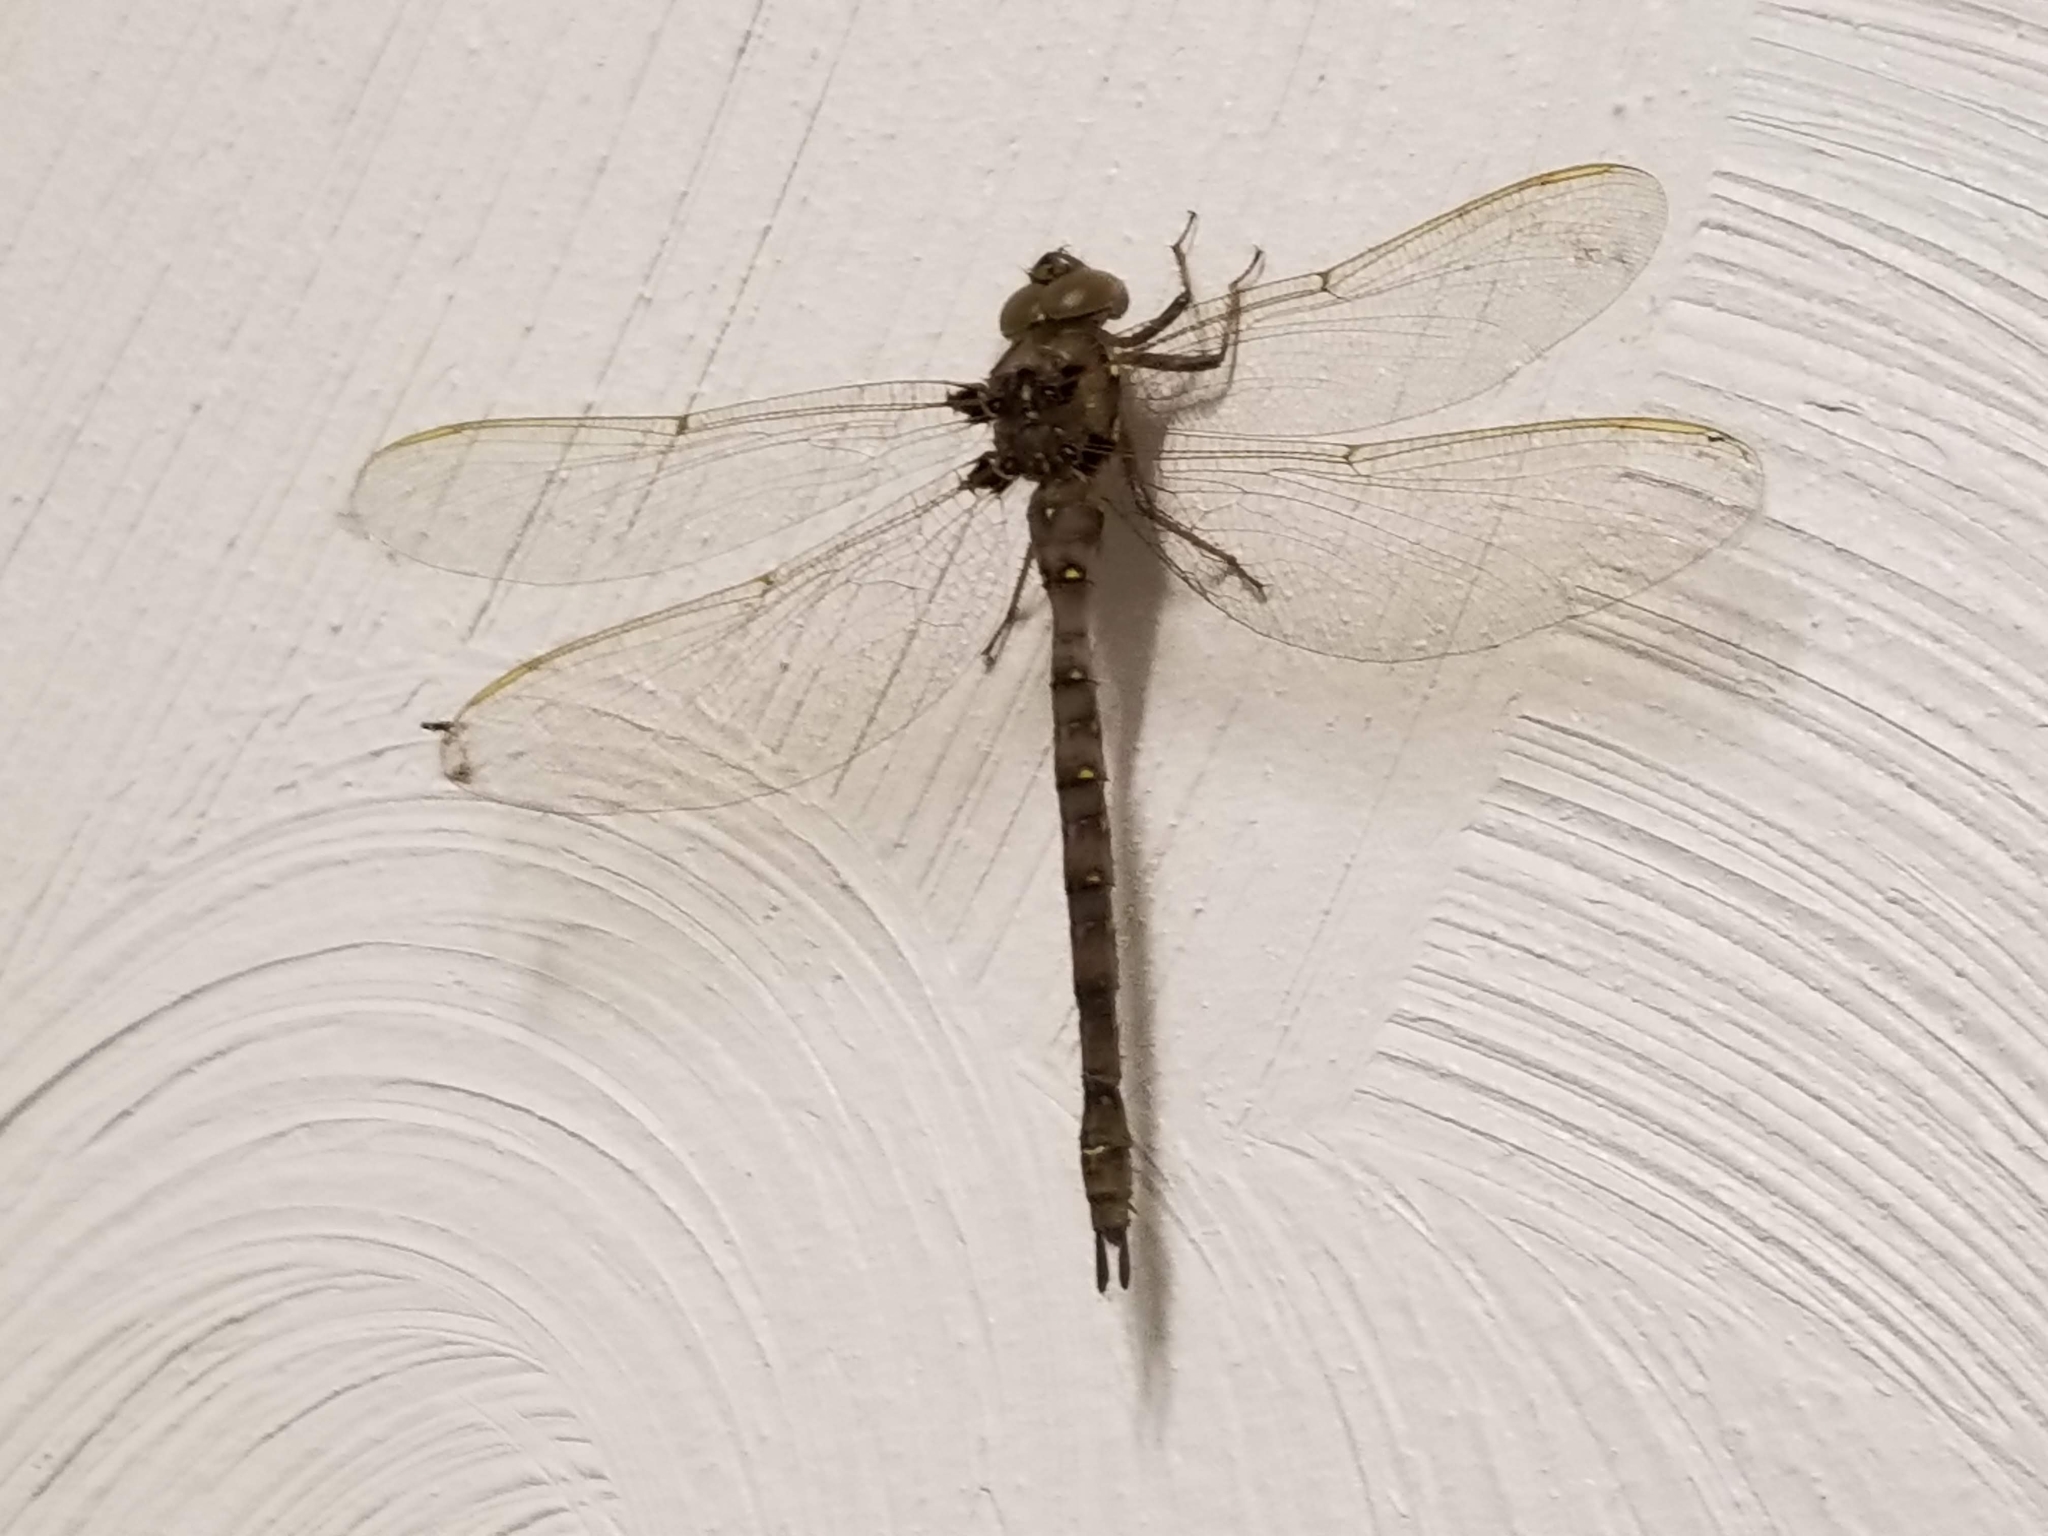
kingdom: Animalia
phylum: Arthropoda
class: Insecta
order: Odonata
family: Aeshnidae
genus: Boyeria
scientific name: Boyeria vinosa
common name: Fawn darner
